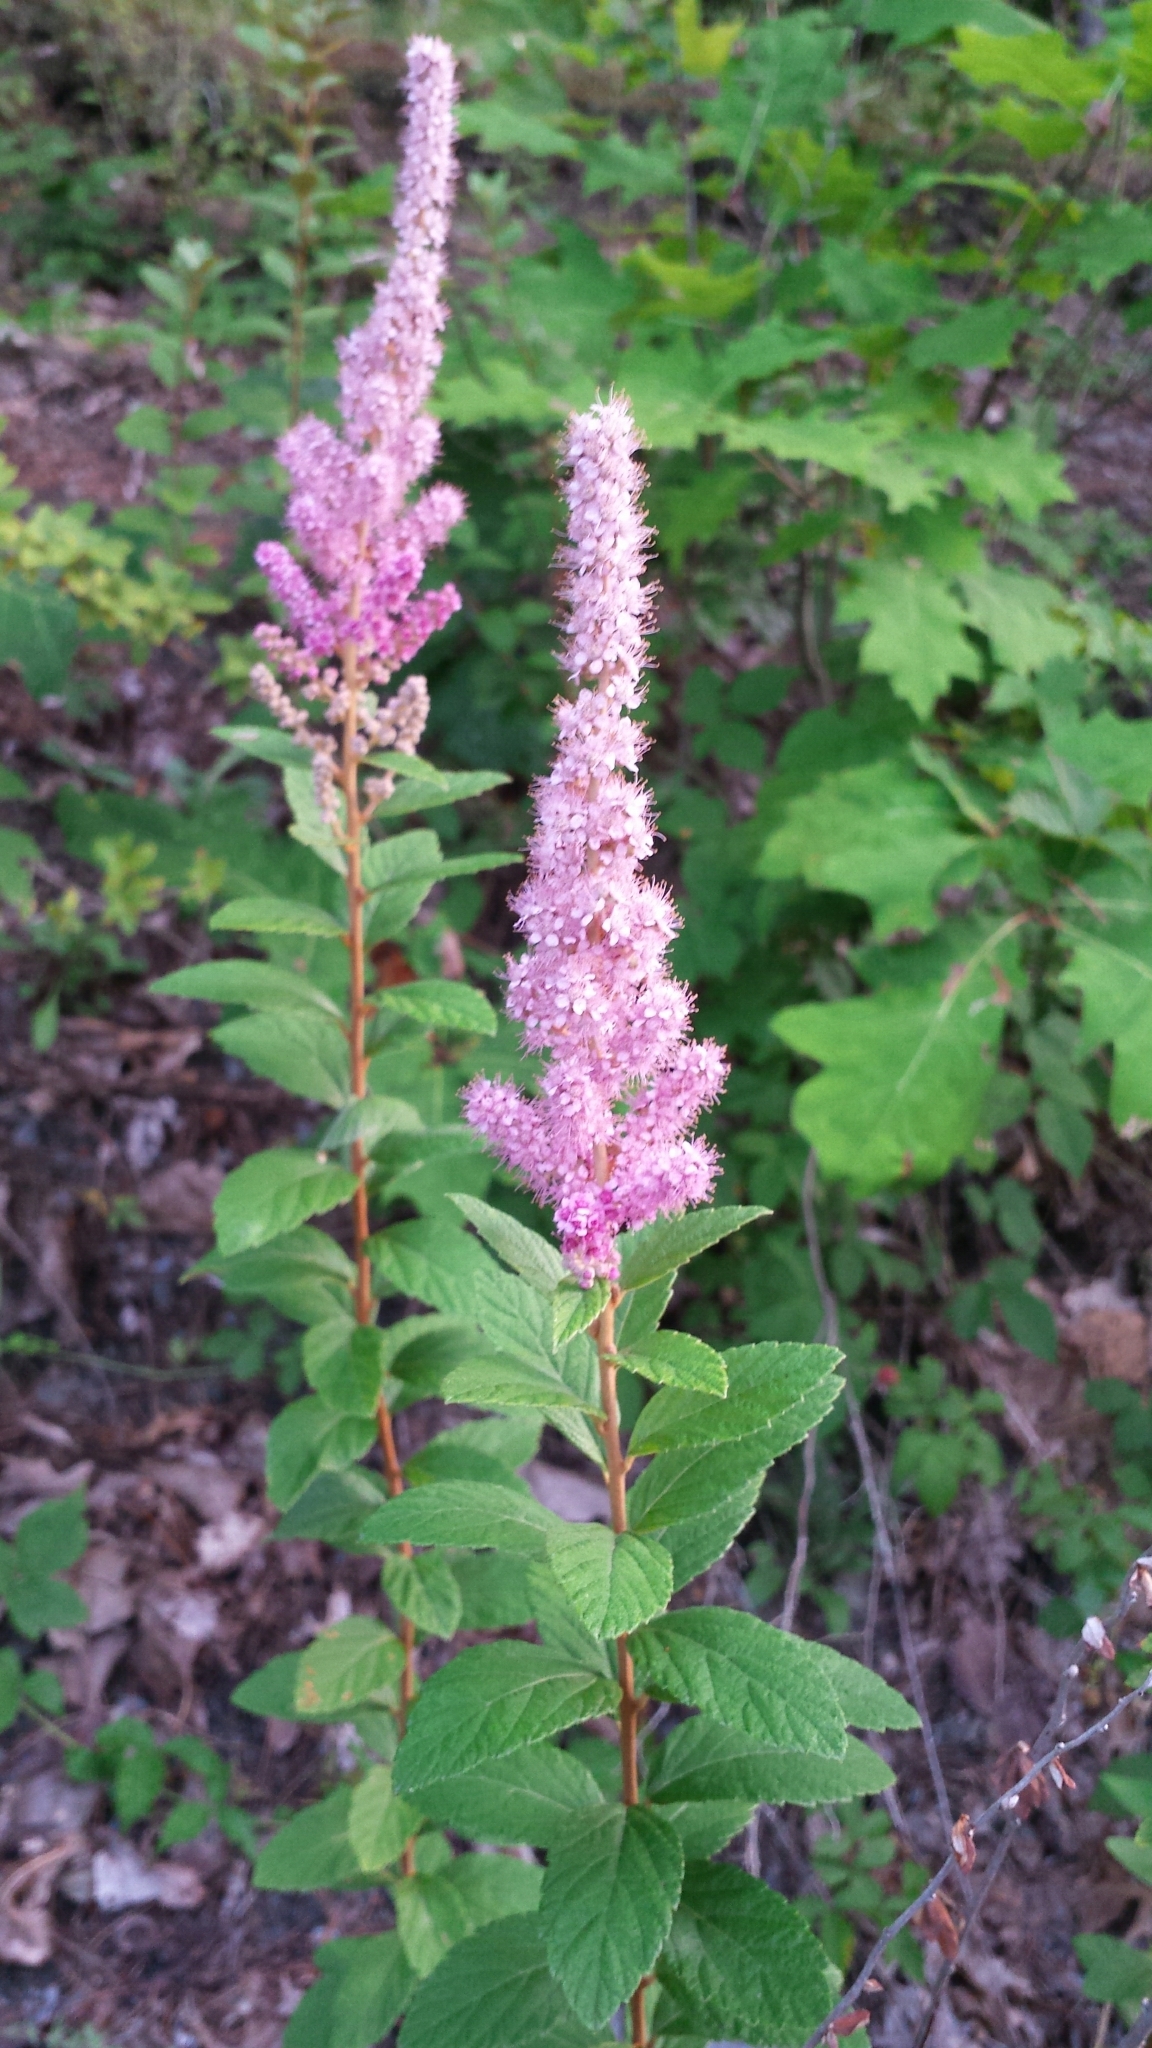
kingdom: Plantae
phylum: Tracheophyta
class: Magnoliopsida
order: Rosales
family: Rosaceae
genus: Spiraea
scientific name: Spiraea tomentosa
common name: Hardhack
